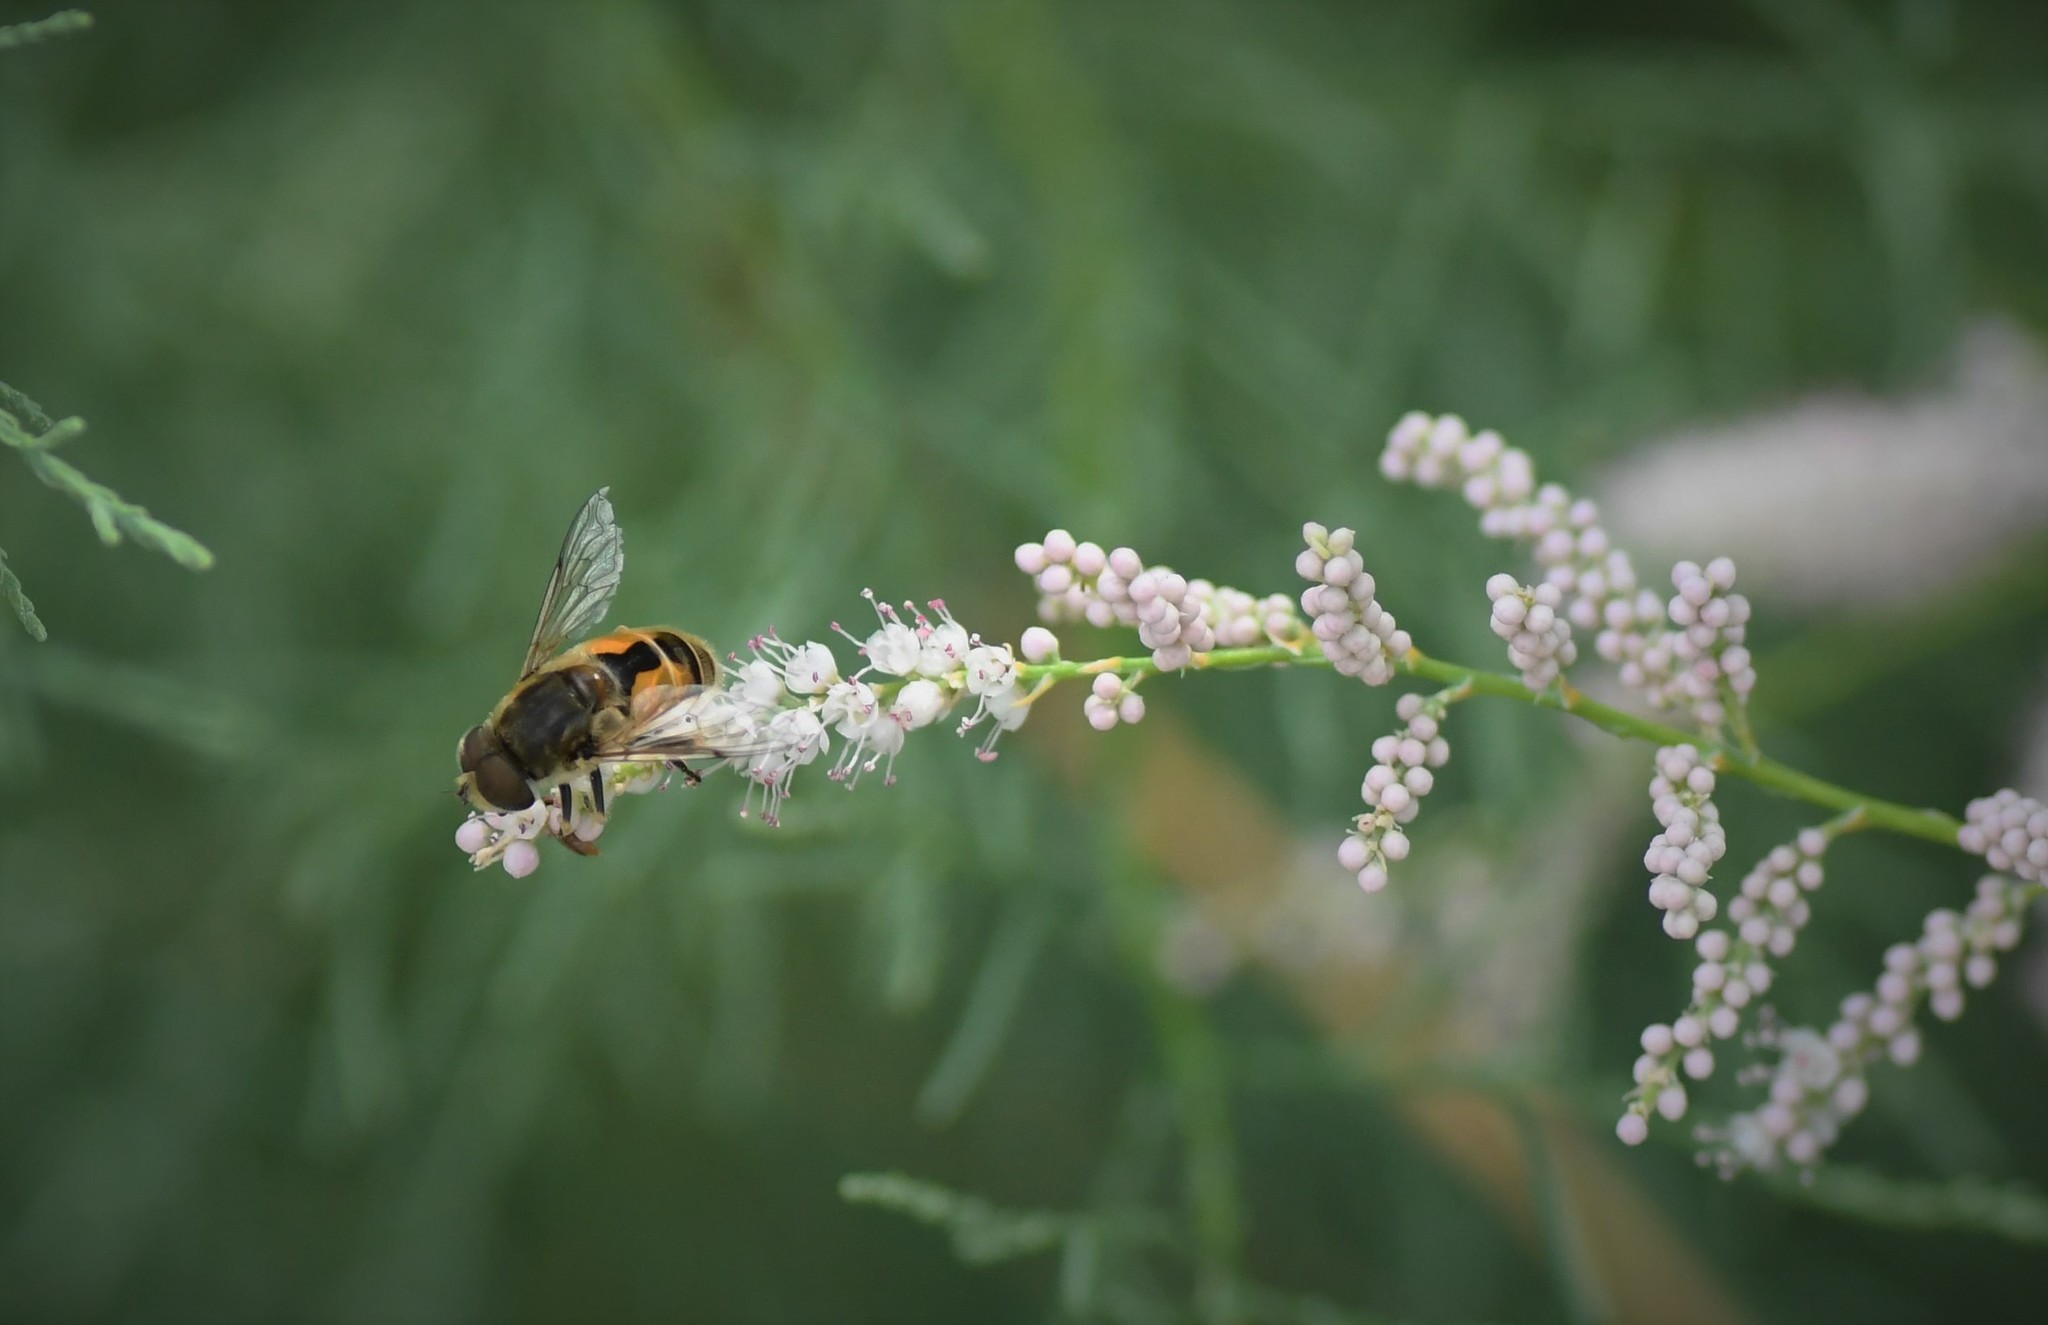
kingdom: Animalia
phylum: Arthropoda
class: Insecta
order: Diptera
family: Syrphidae
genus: Eristalis
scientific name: Eristalis arbustorum
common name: Hover fly
